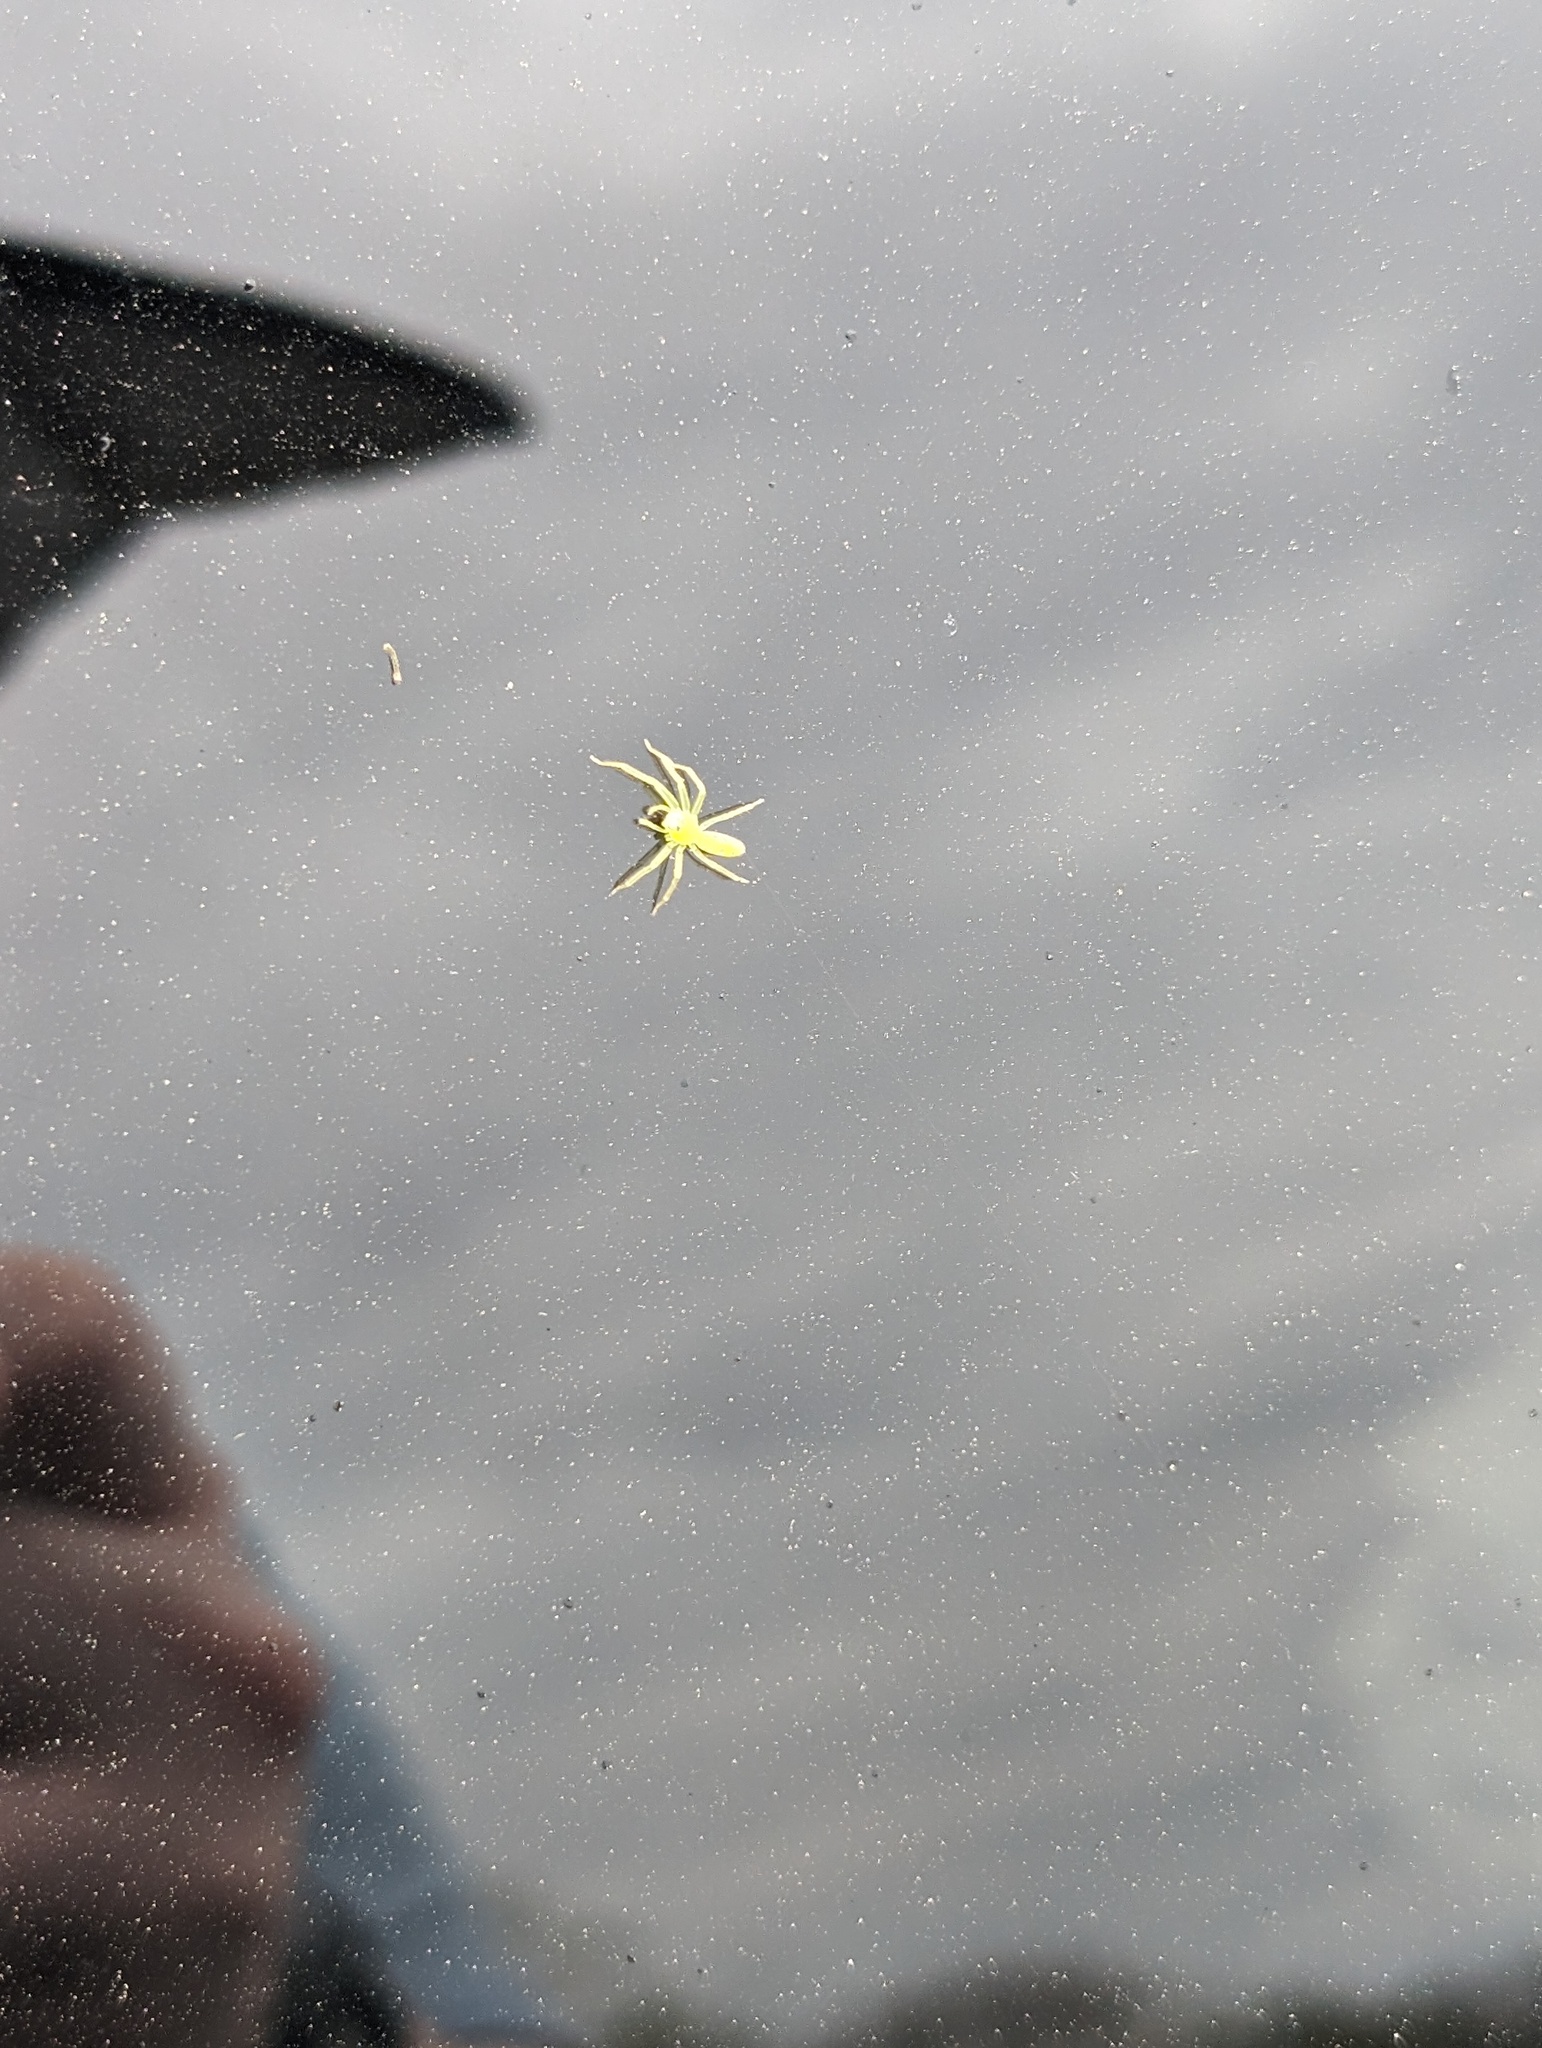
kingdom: Animalia
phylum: Arthropoda
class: Arachnida
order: Araneae
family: Salticidae
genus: Lyssomanes
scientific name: Lyssomanes viridis
